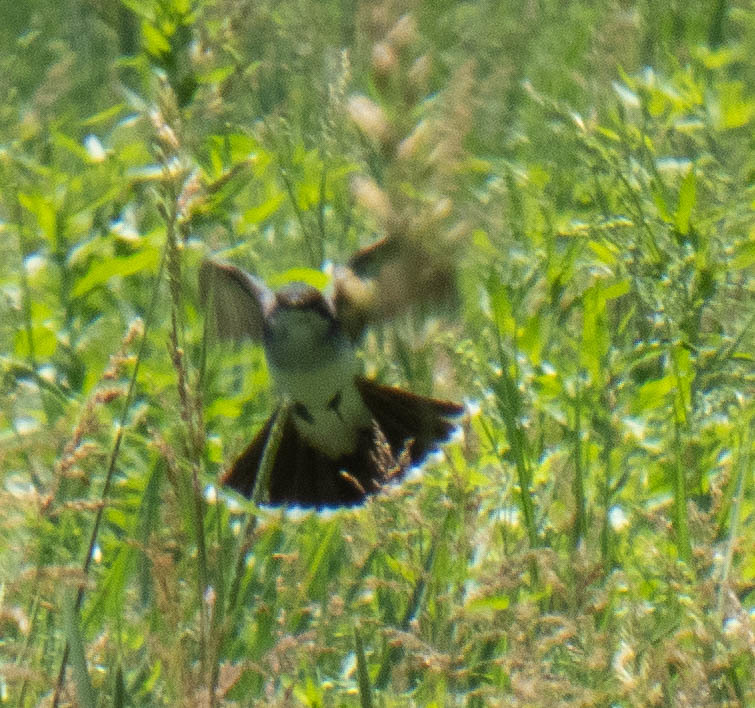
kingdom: Animalia
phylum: Chordata
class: Aves
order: Passeriformes
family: Tyrannidae
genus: Tyrannus
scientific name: Tyrannus tyrannus
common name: Eastern kingbird
